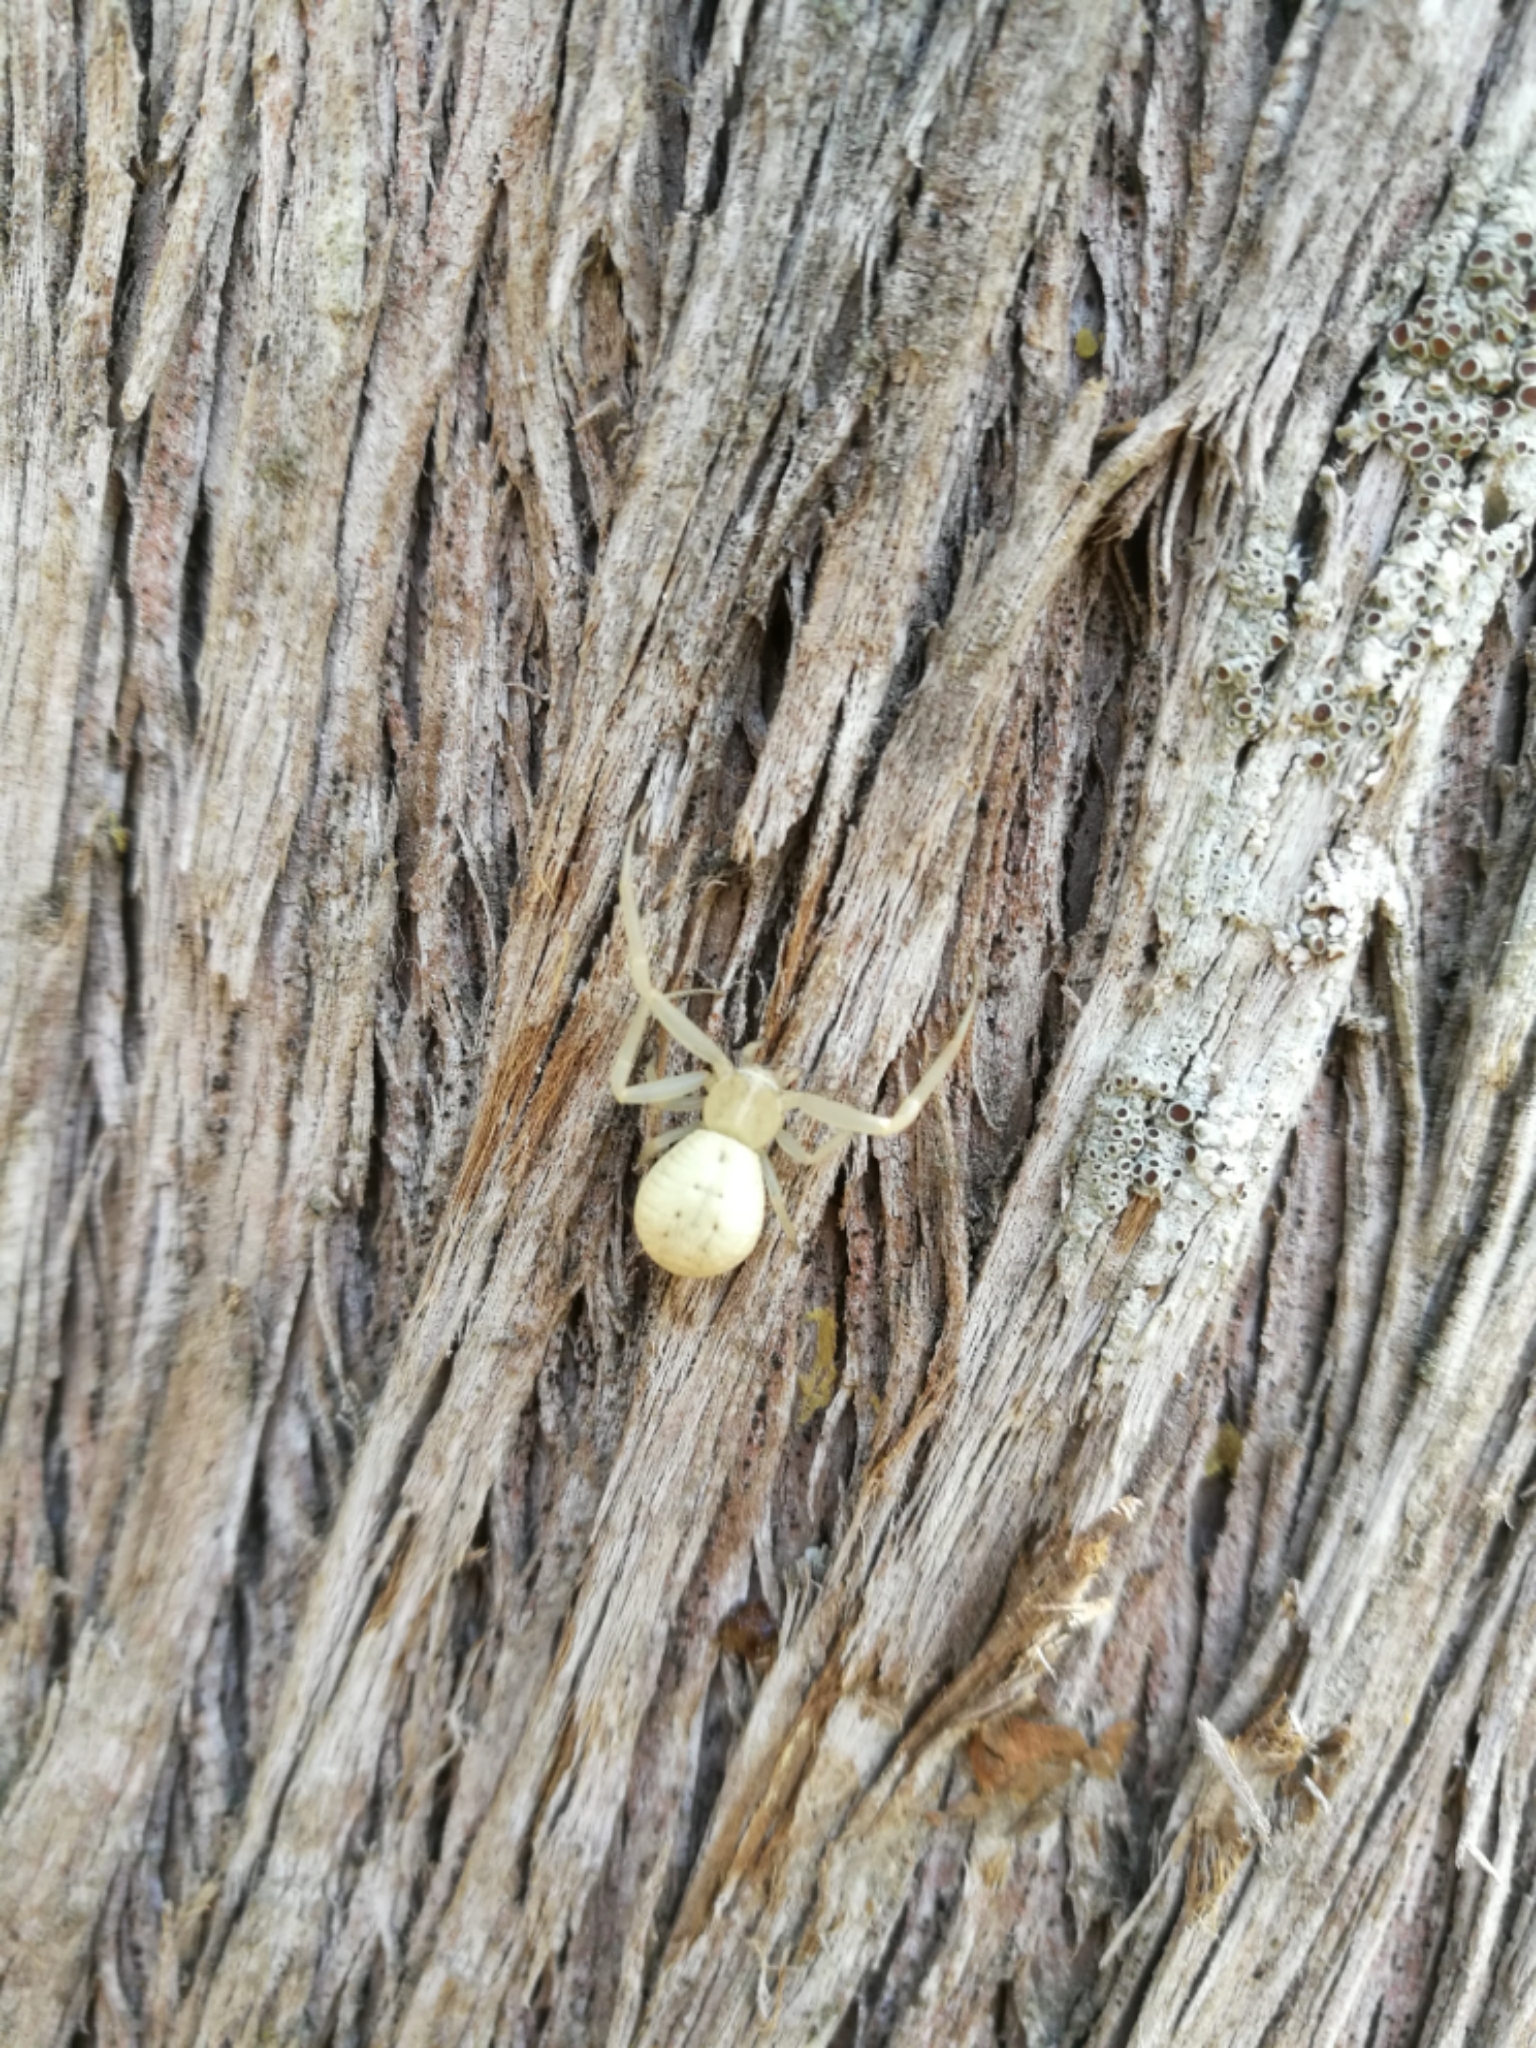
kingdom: Animalia
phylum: Arthropoda
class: Arachnida
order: Araneae
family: Thomisidae
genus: Runcinia
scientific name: Runcinia grammica
